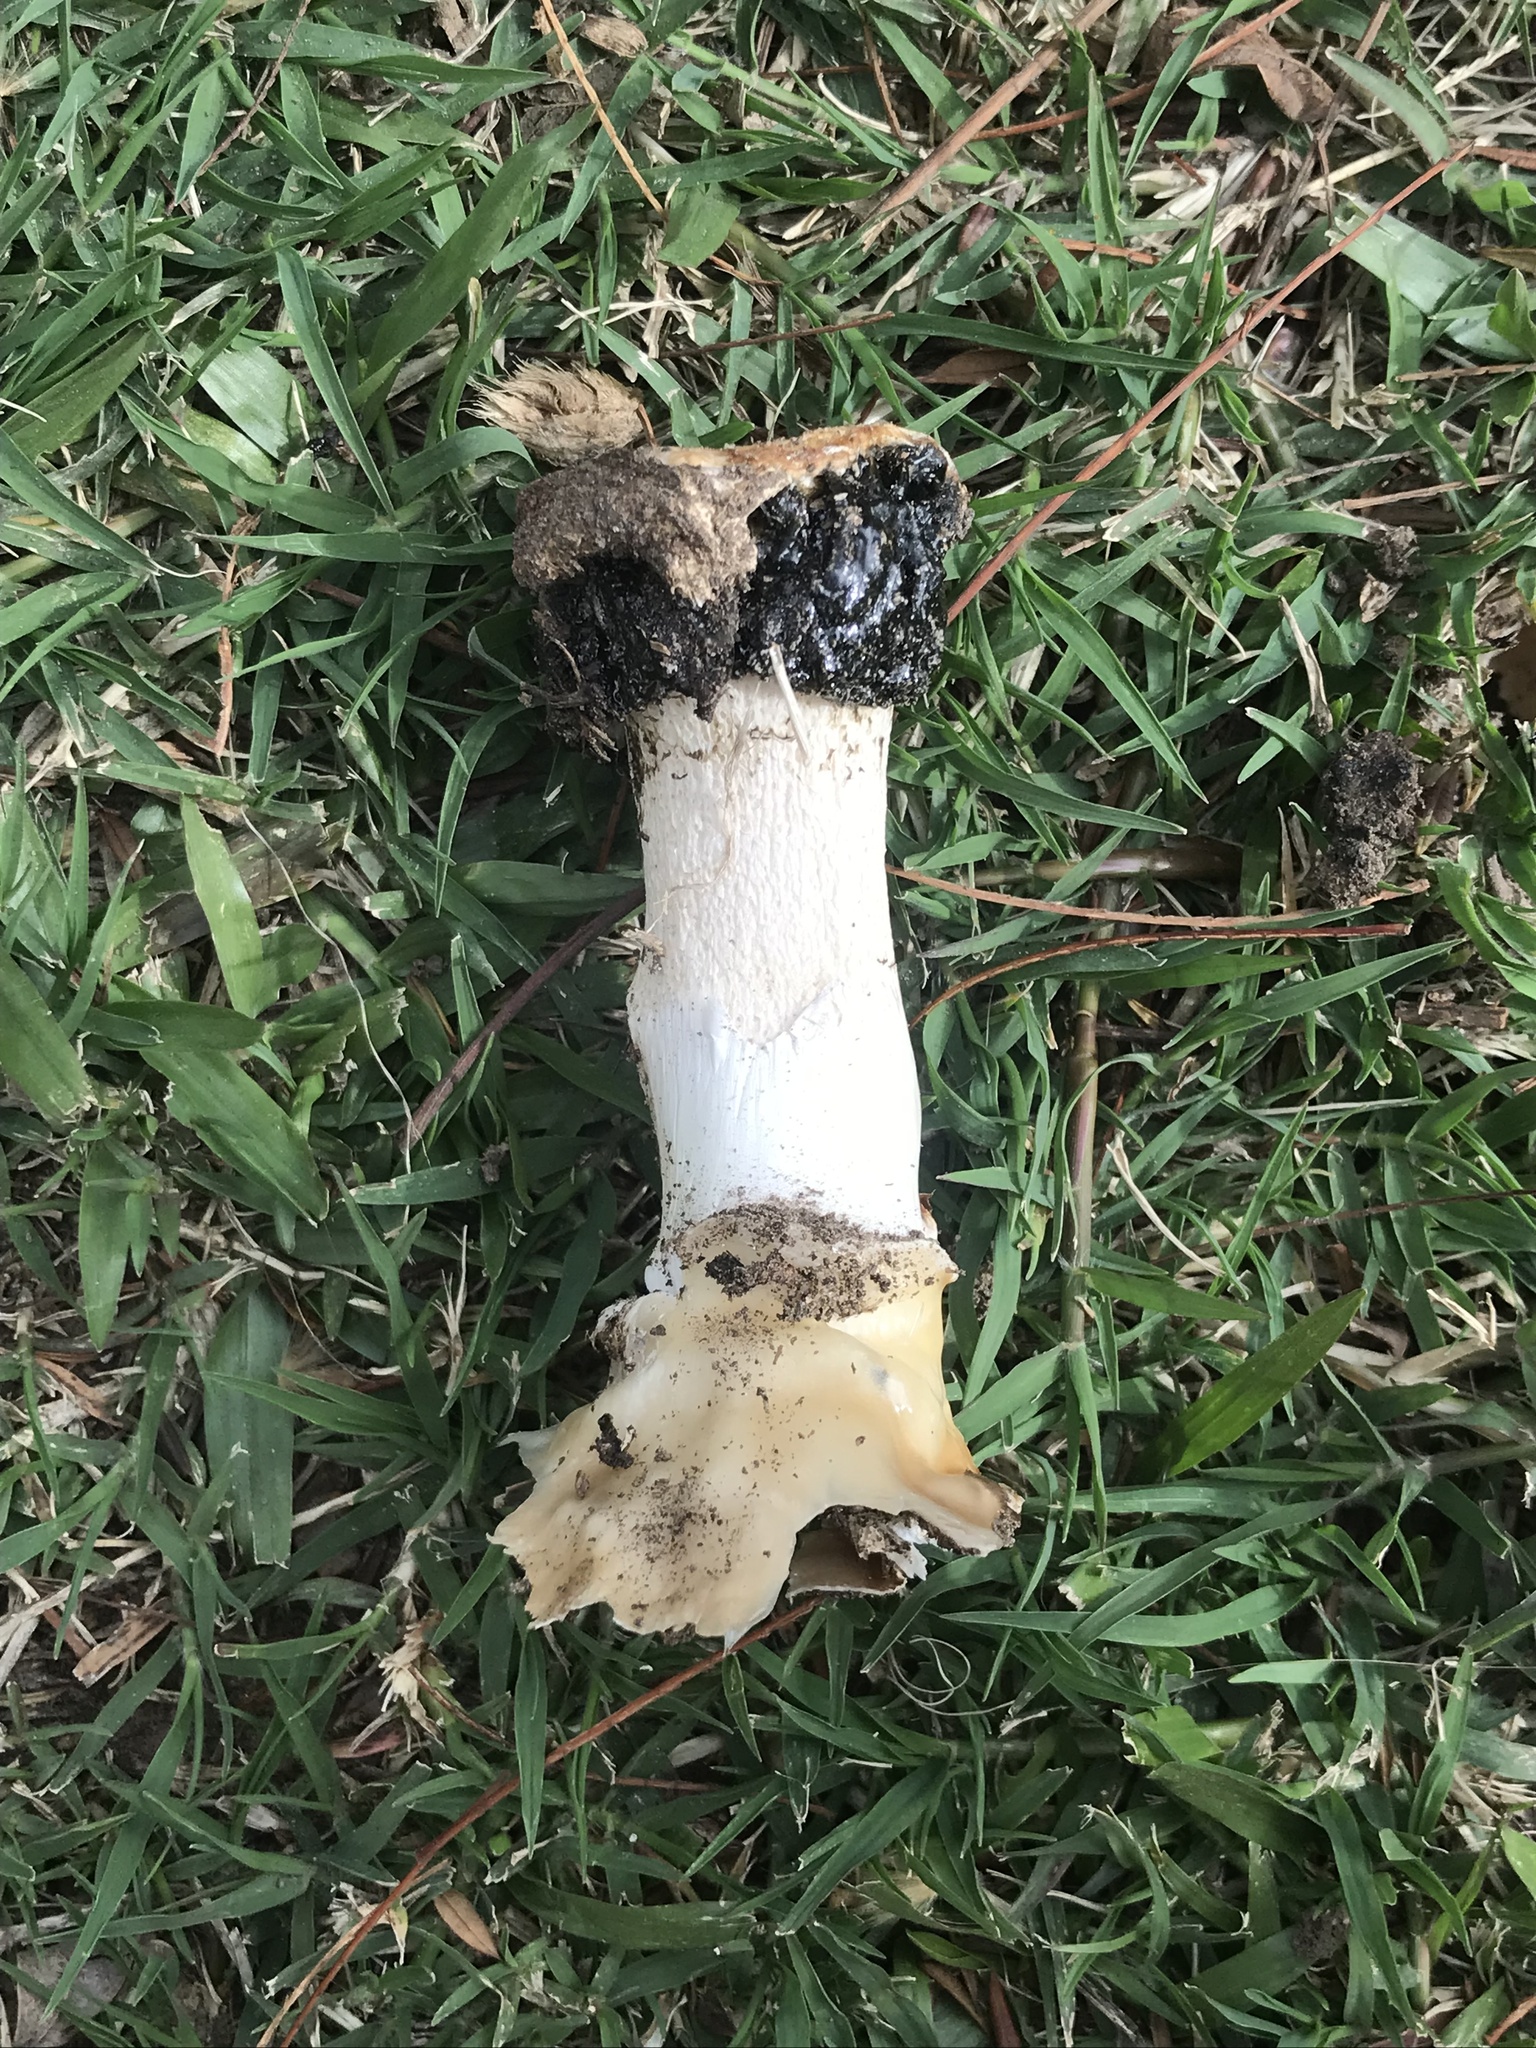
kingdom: Fungi
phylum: Basidiomycota
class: Agaricomycetes
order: Phallales
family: Phallaceae
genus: Itajahya
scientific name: Itajahya galericulata
